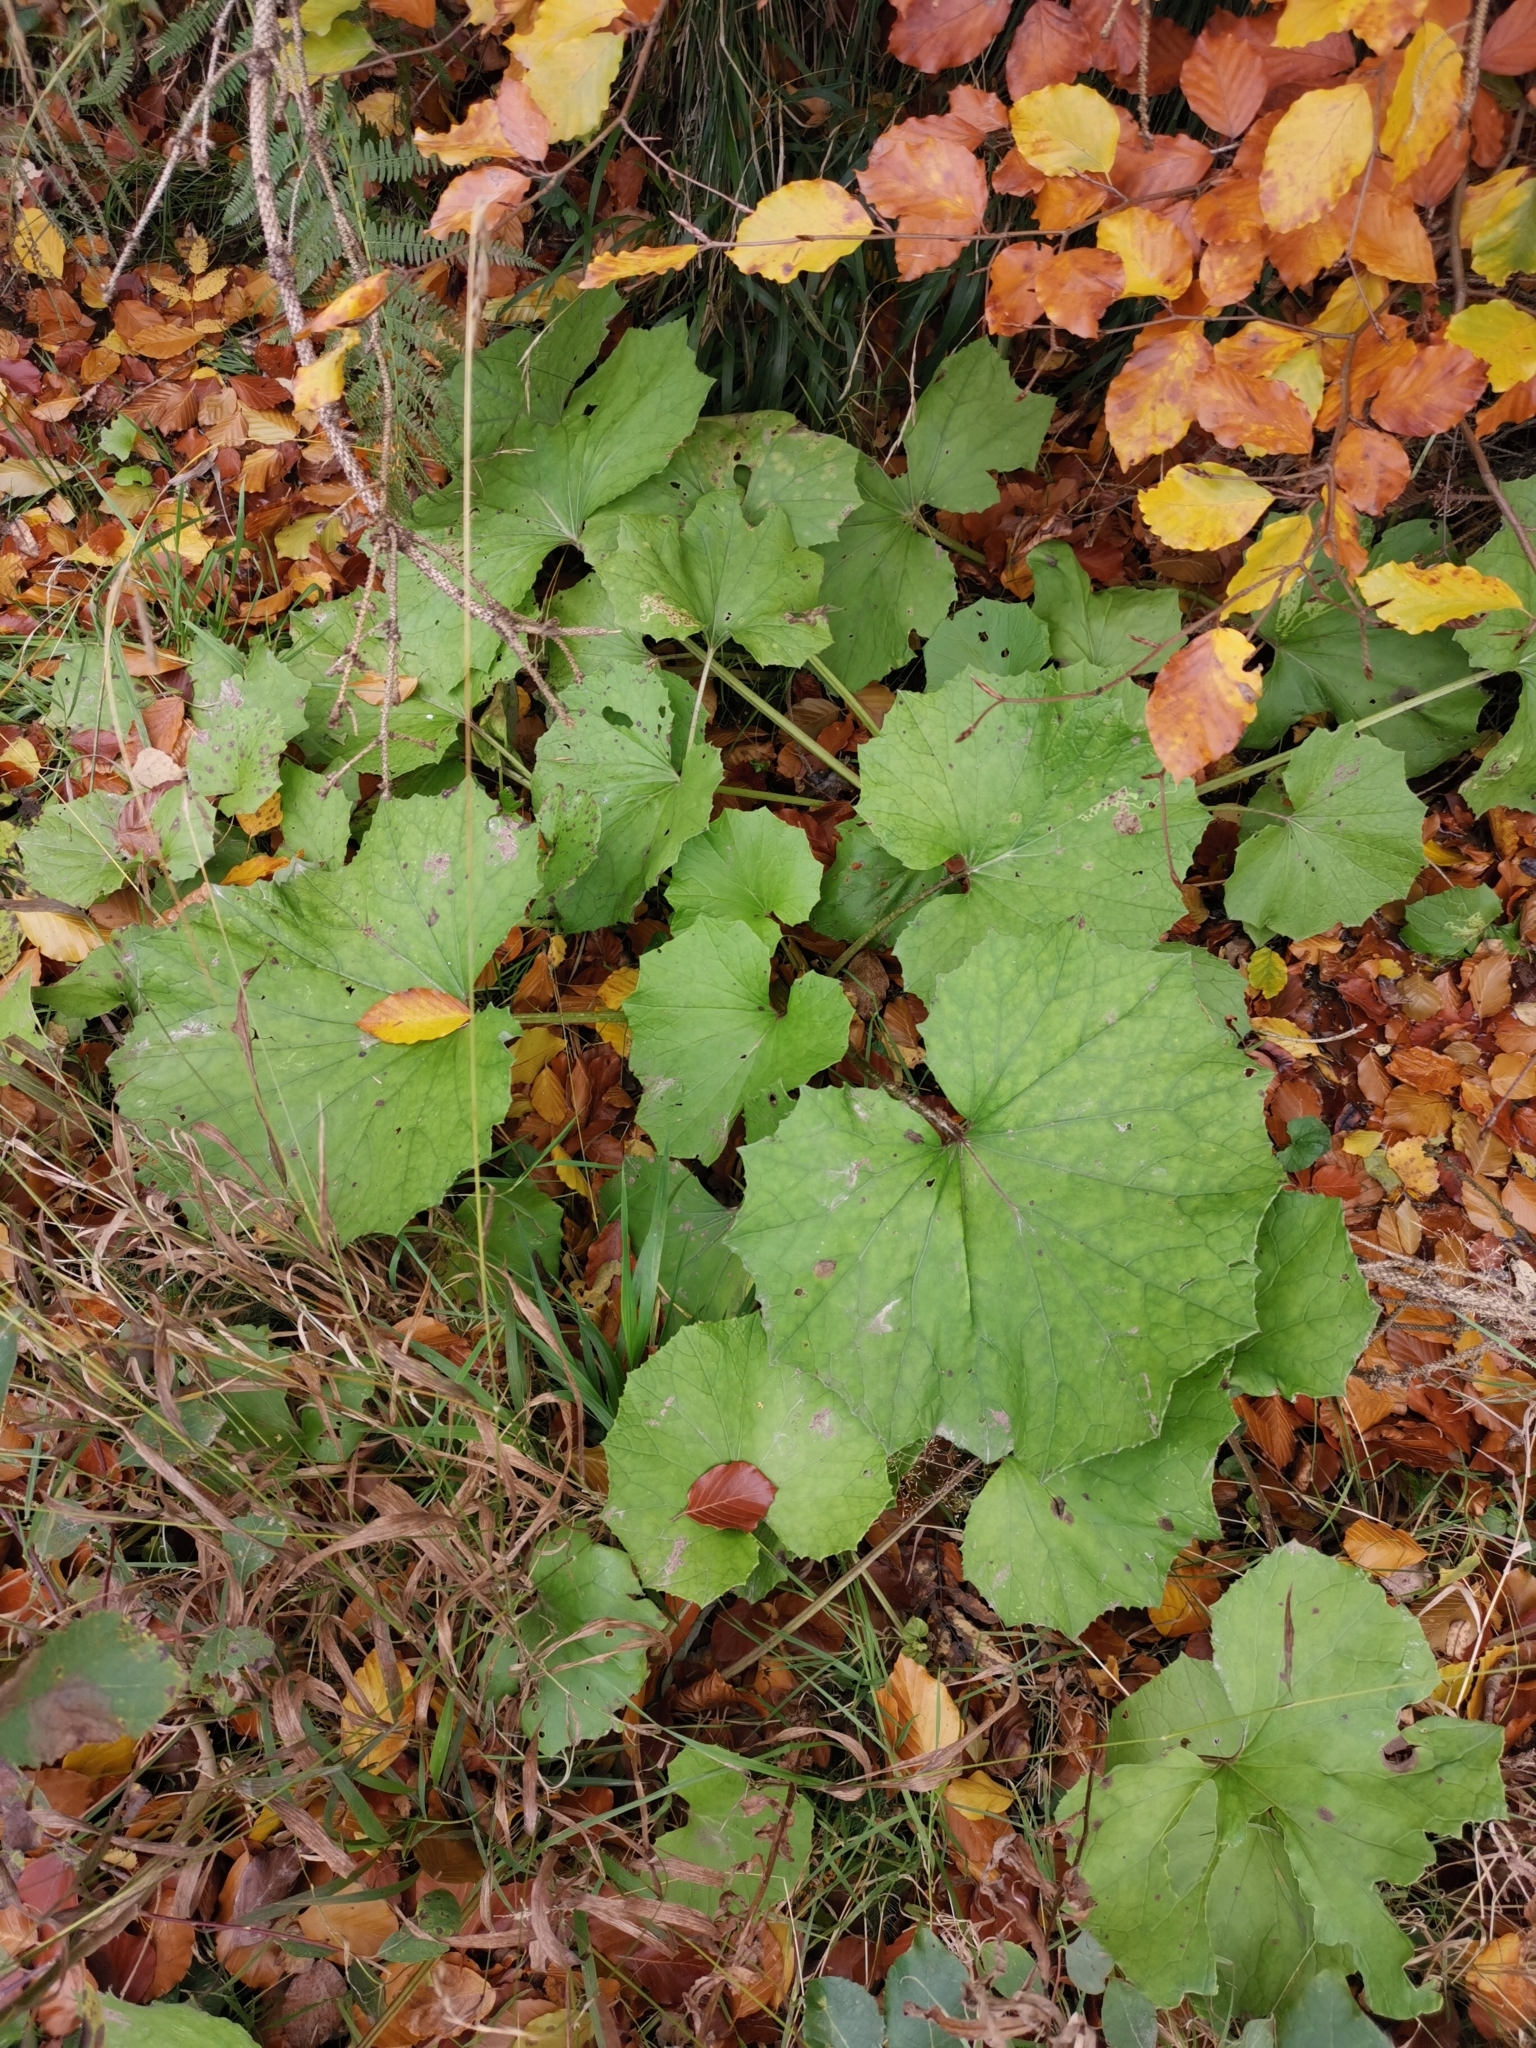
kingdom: Plantae
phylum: Tracheophyta
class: Magnoliopsida
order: Asterales
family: Asteraceae
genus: Tussilago
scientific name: Tussilago farfara
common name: Coltsfoot
